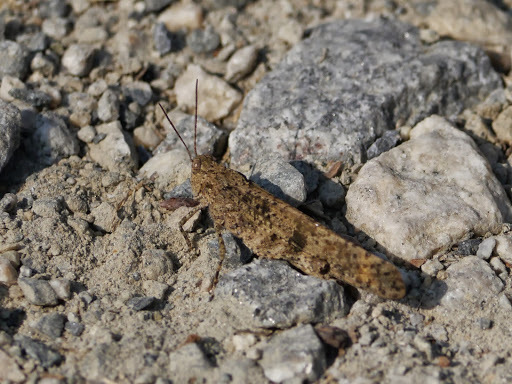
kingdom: Animalia
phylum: Arthropoda
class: Insecta
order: Orthoptera
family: Acrididae
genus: Dissosteira
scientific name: Dissosteira carolina
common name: Carolina grasshopper
